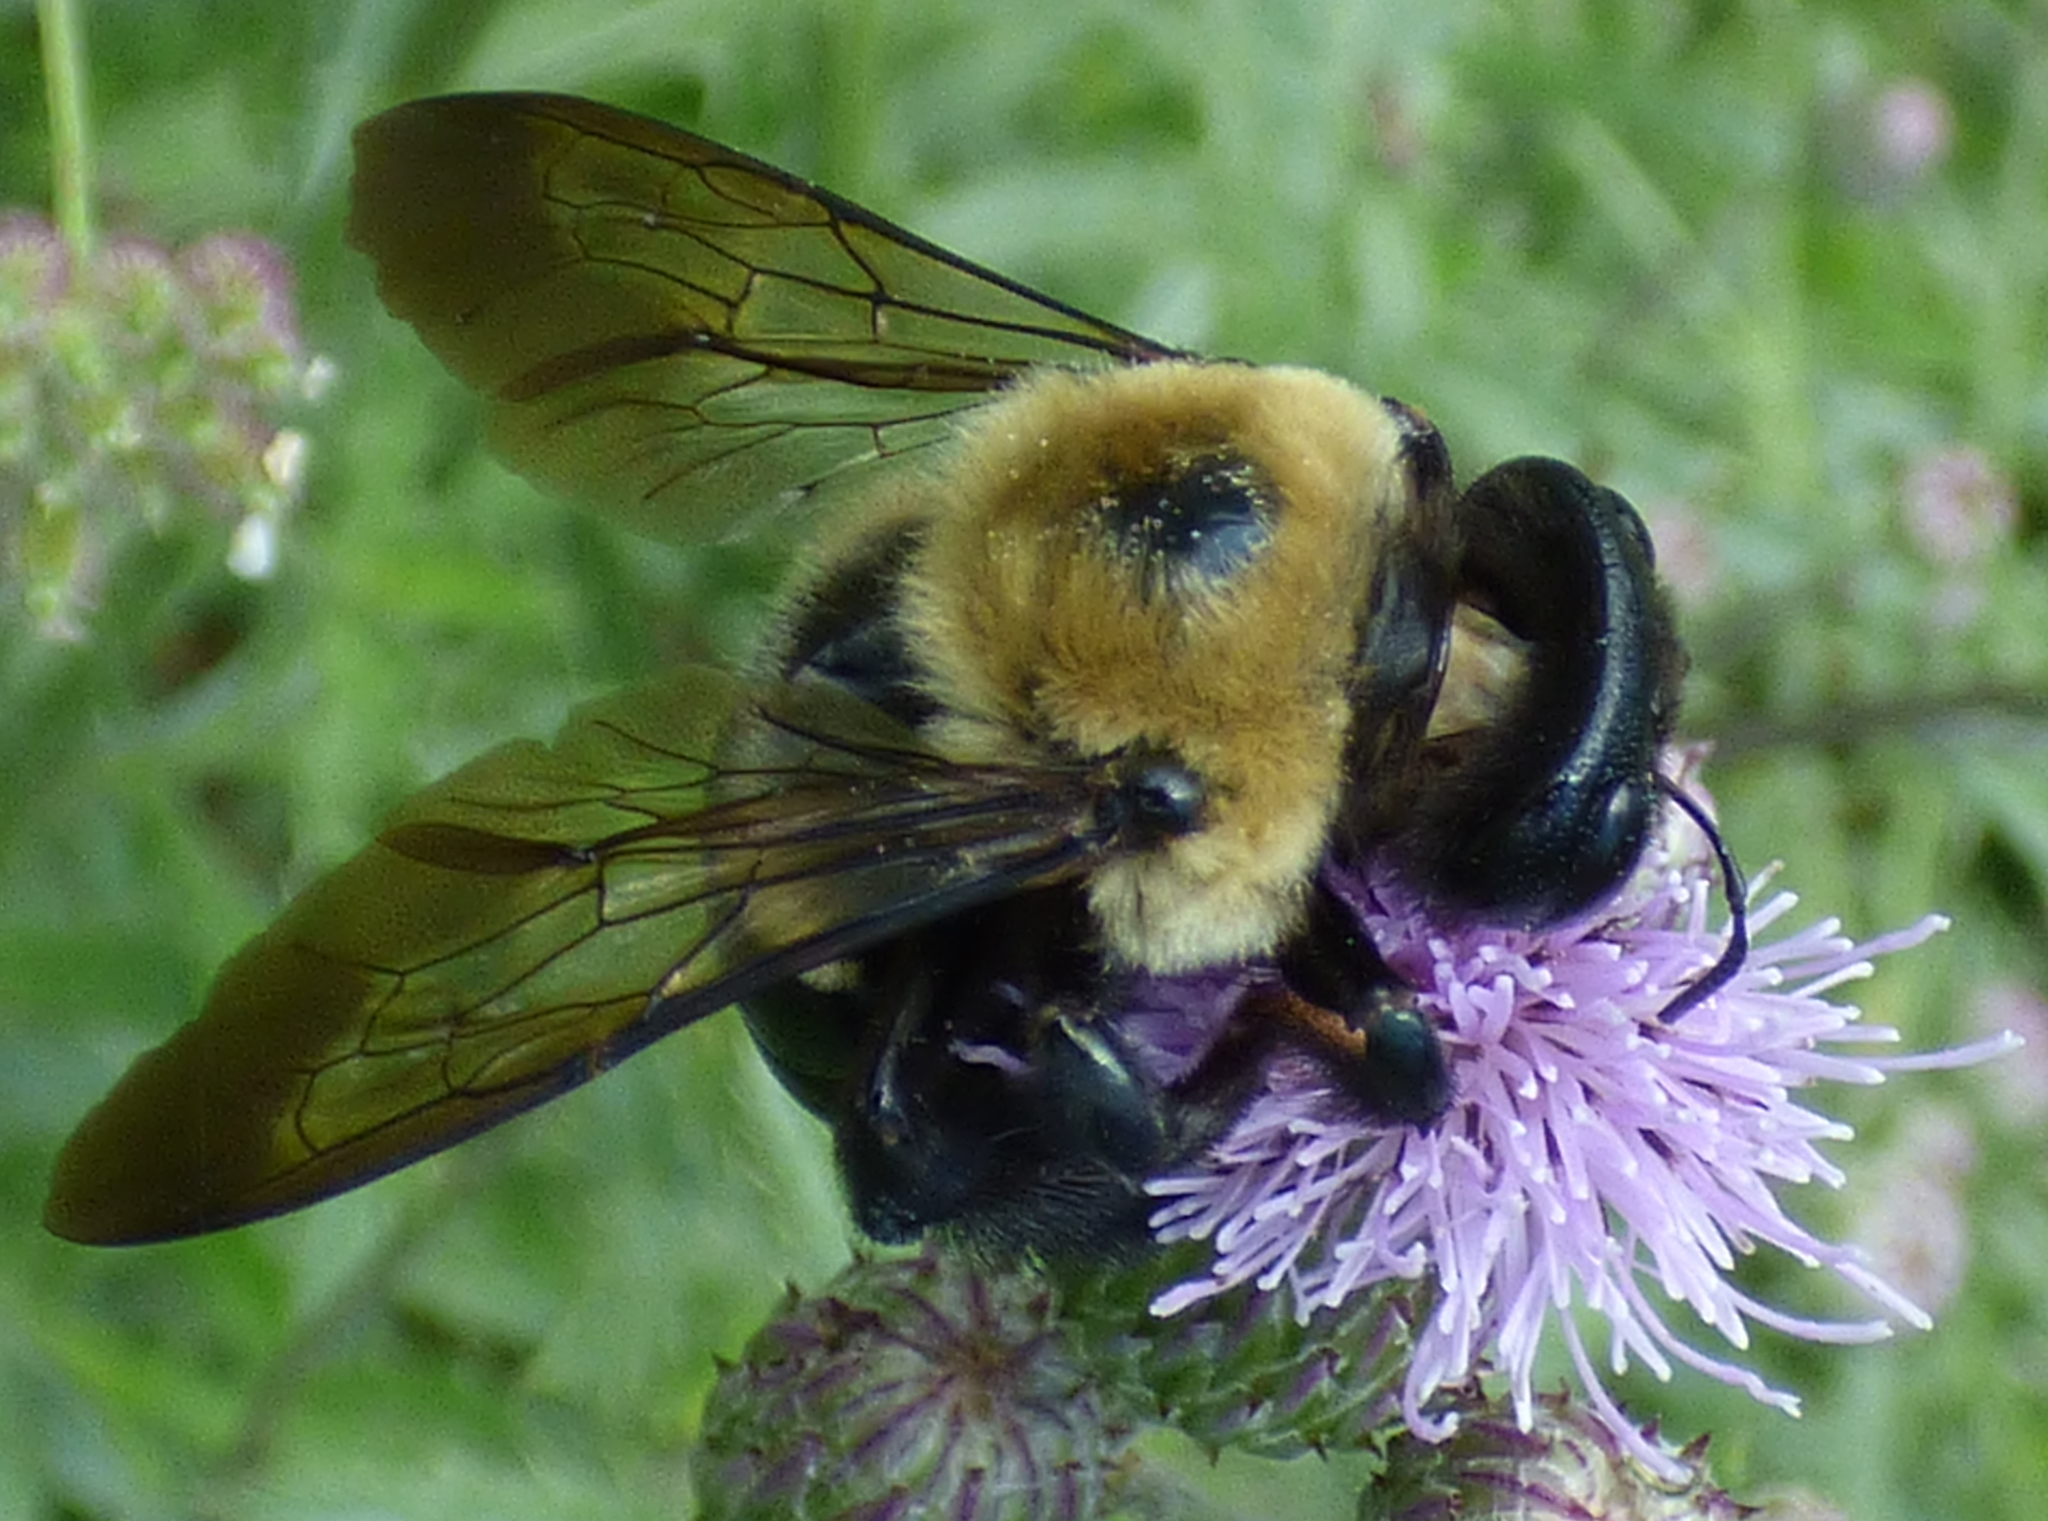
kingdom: Animalia
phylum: Arthropoda
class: Insecta
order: Hymenoptera
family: Apidae
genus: Xylocopa
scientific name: Xylocopa virginica
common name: Carpenter bee
